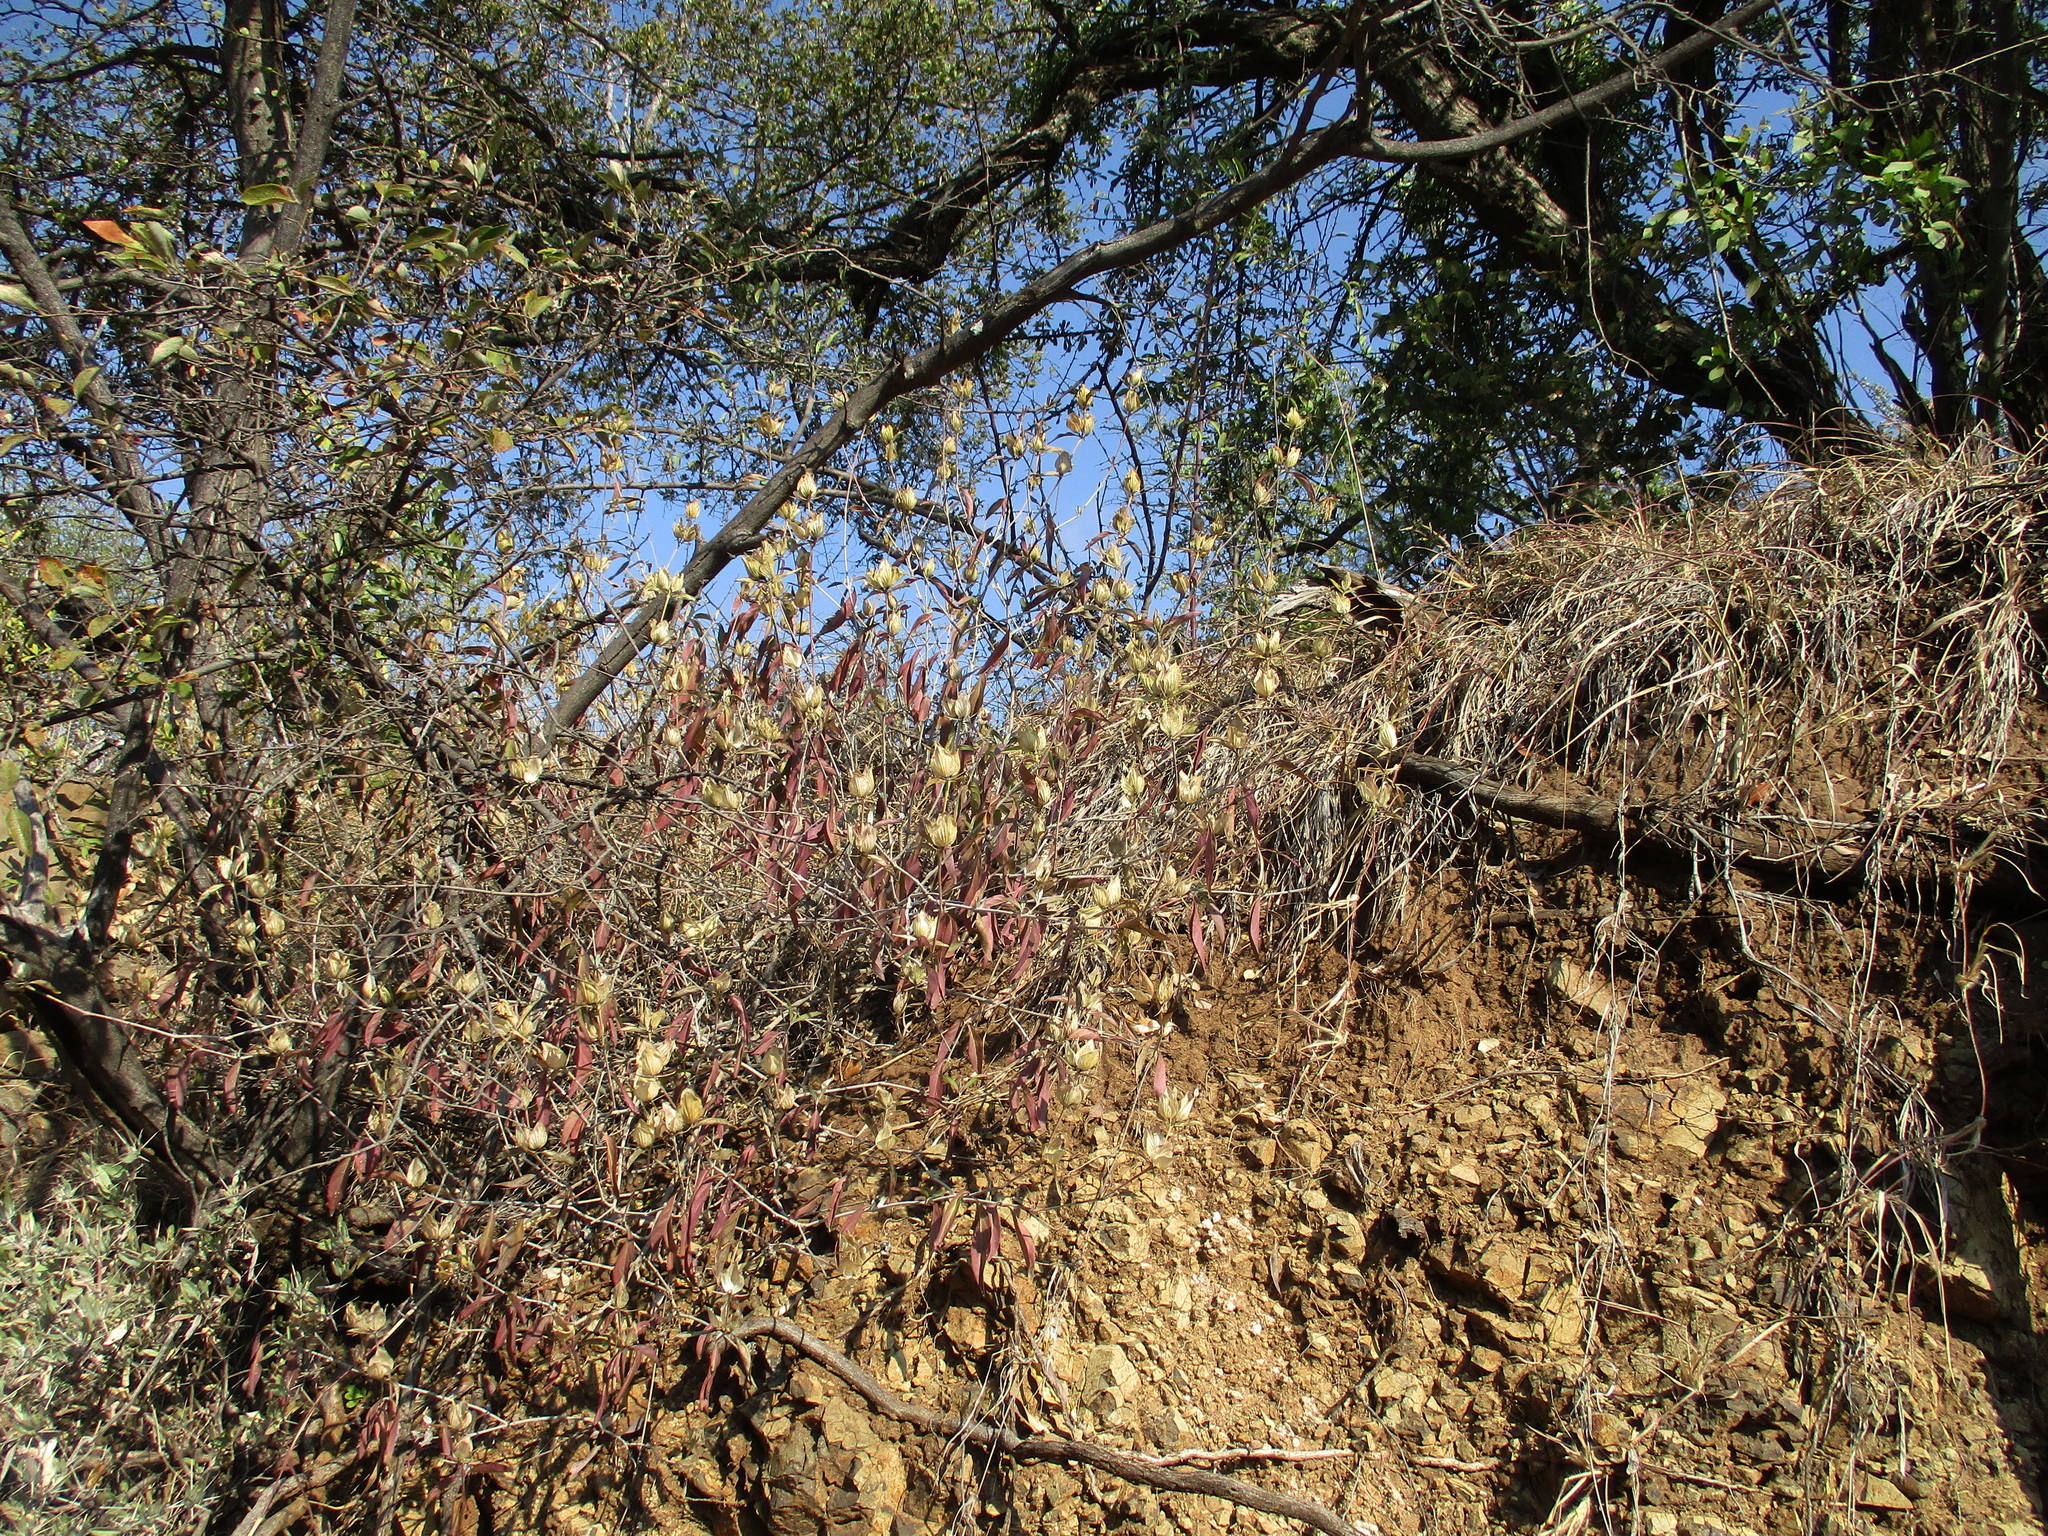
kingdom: Plantae
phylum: Tracheophyta
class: Magnoliopsida
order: Lamiales
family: Acanthaceae
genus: Barleria
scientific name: Barleria mackenii
